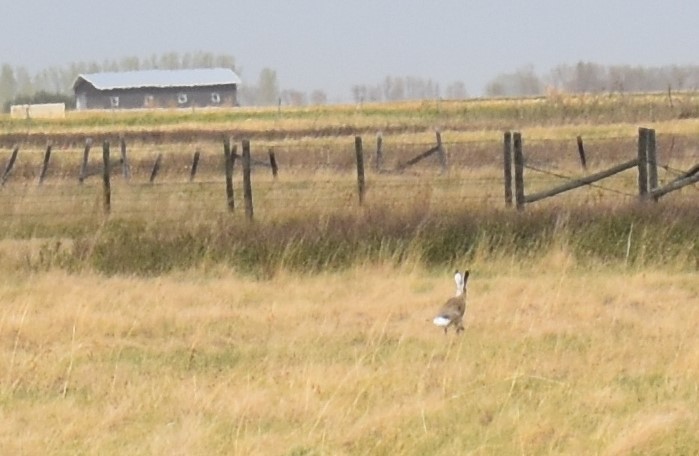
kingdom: Animalia
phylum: Chordata
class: Mammalia
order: Lagomorpha
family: Leporidae
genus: Lepus
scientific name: Lepus townsendii
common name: White-tailed jackrabbit
